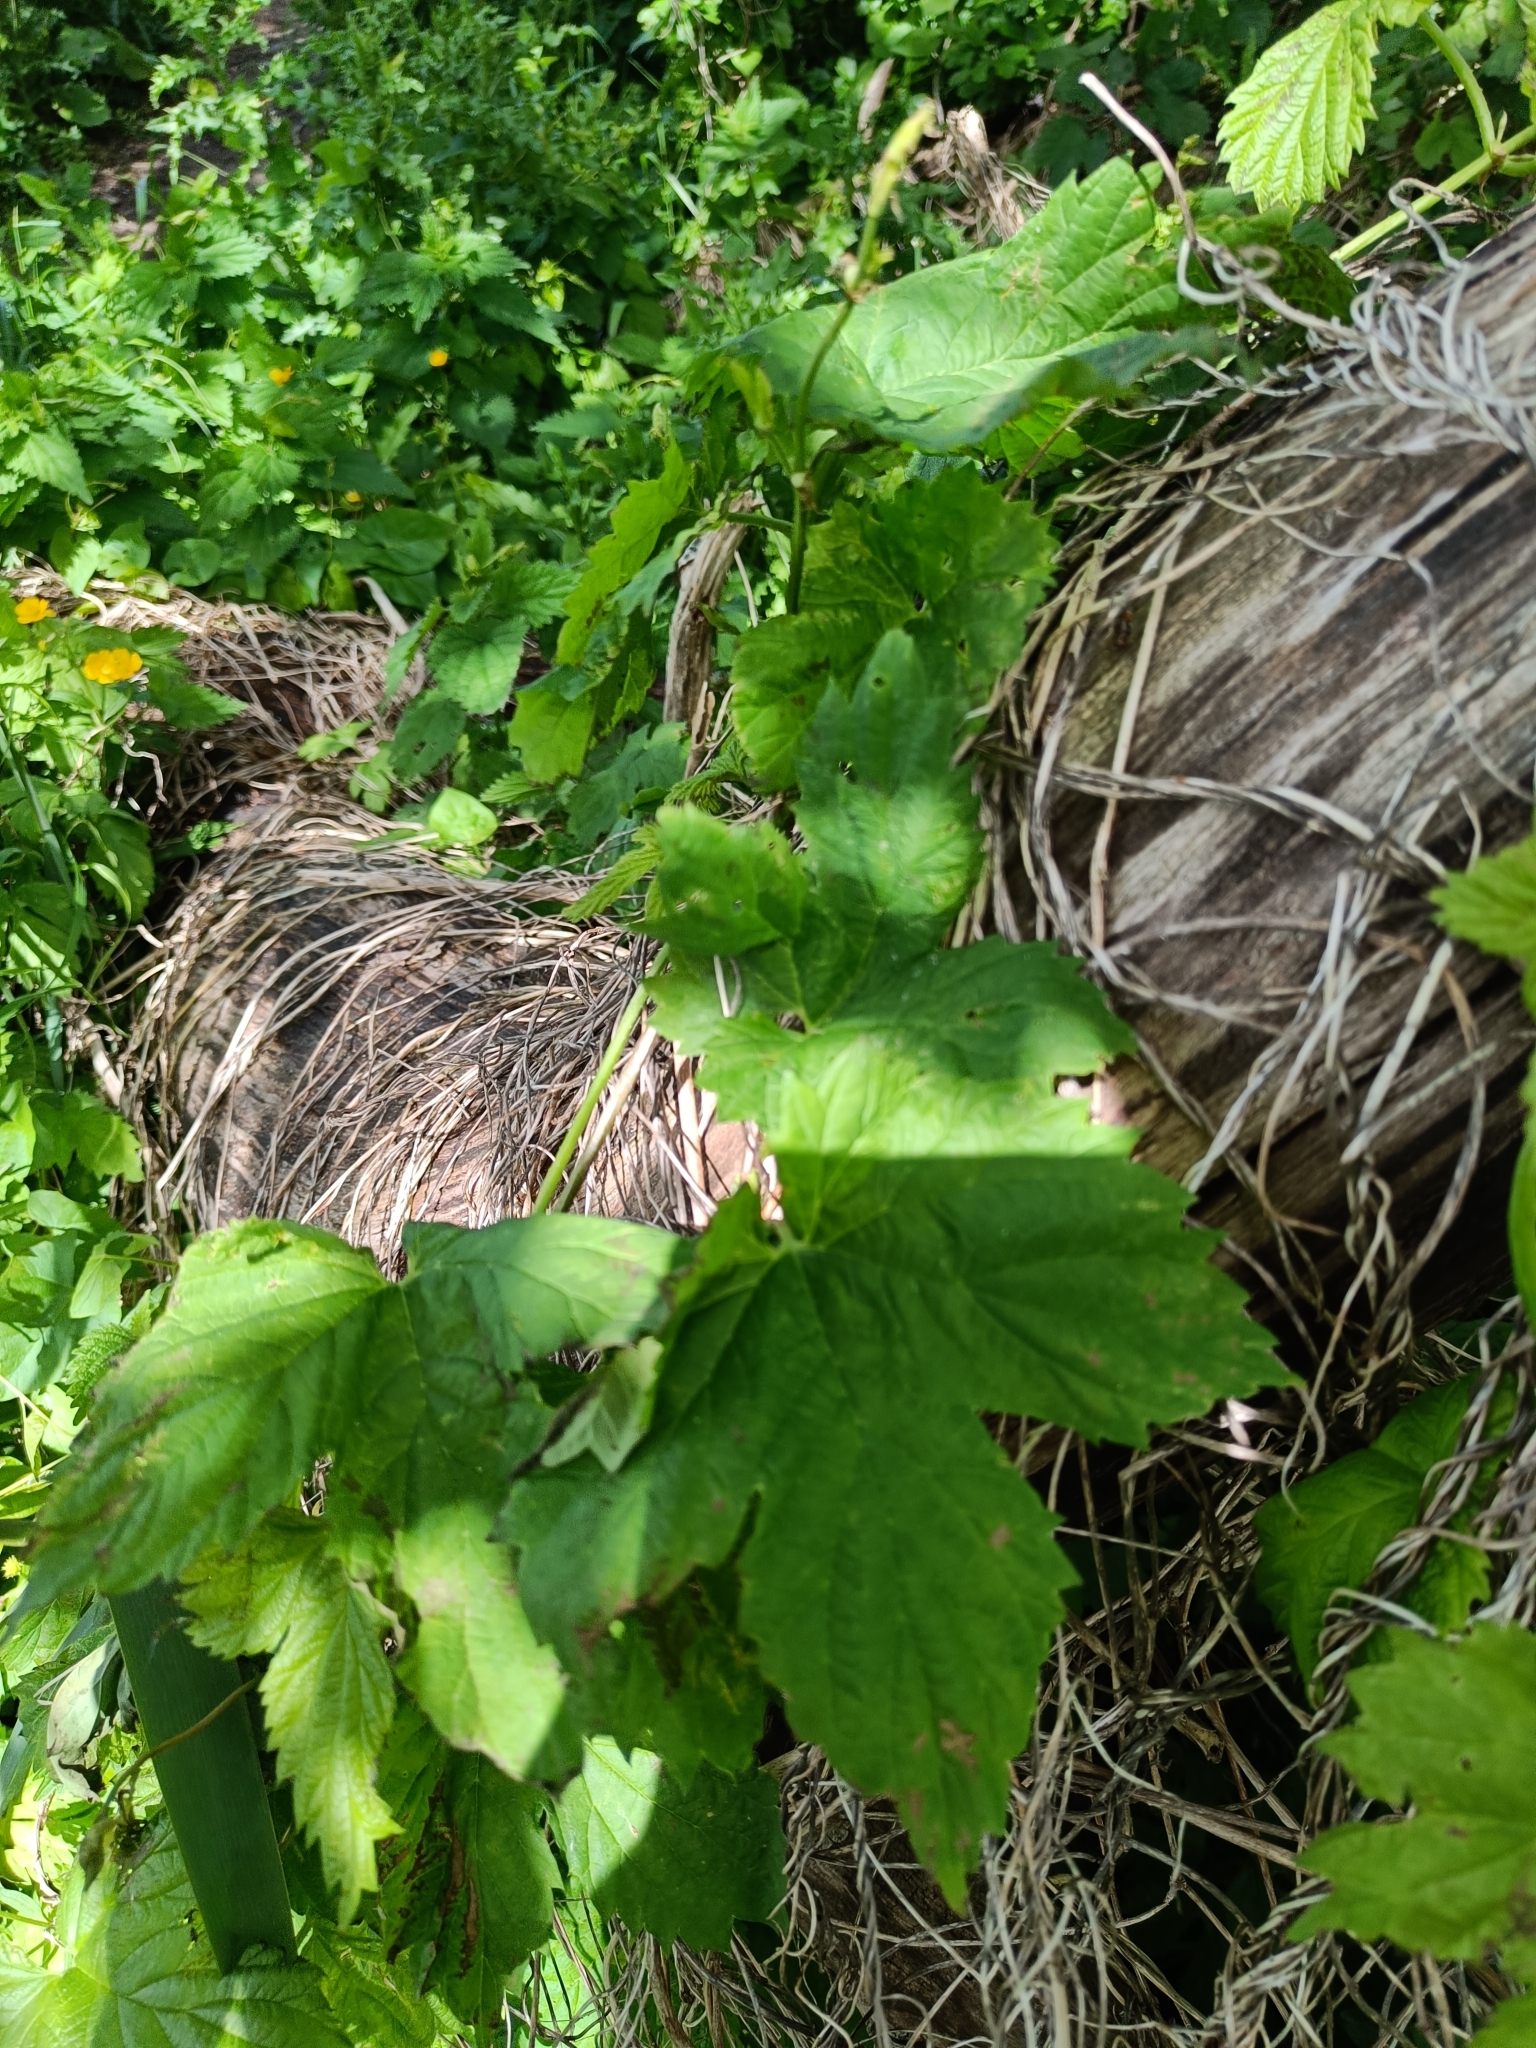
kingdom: Plantae
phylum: Tracheophyta
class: Magnoliopsida
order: Rosales
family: Cannabaceae
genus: Humulus
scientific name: Humulus lupulus
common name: Hop
